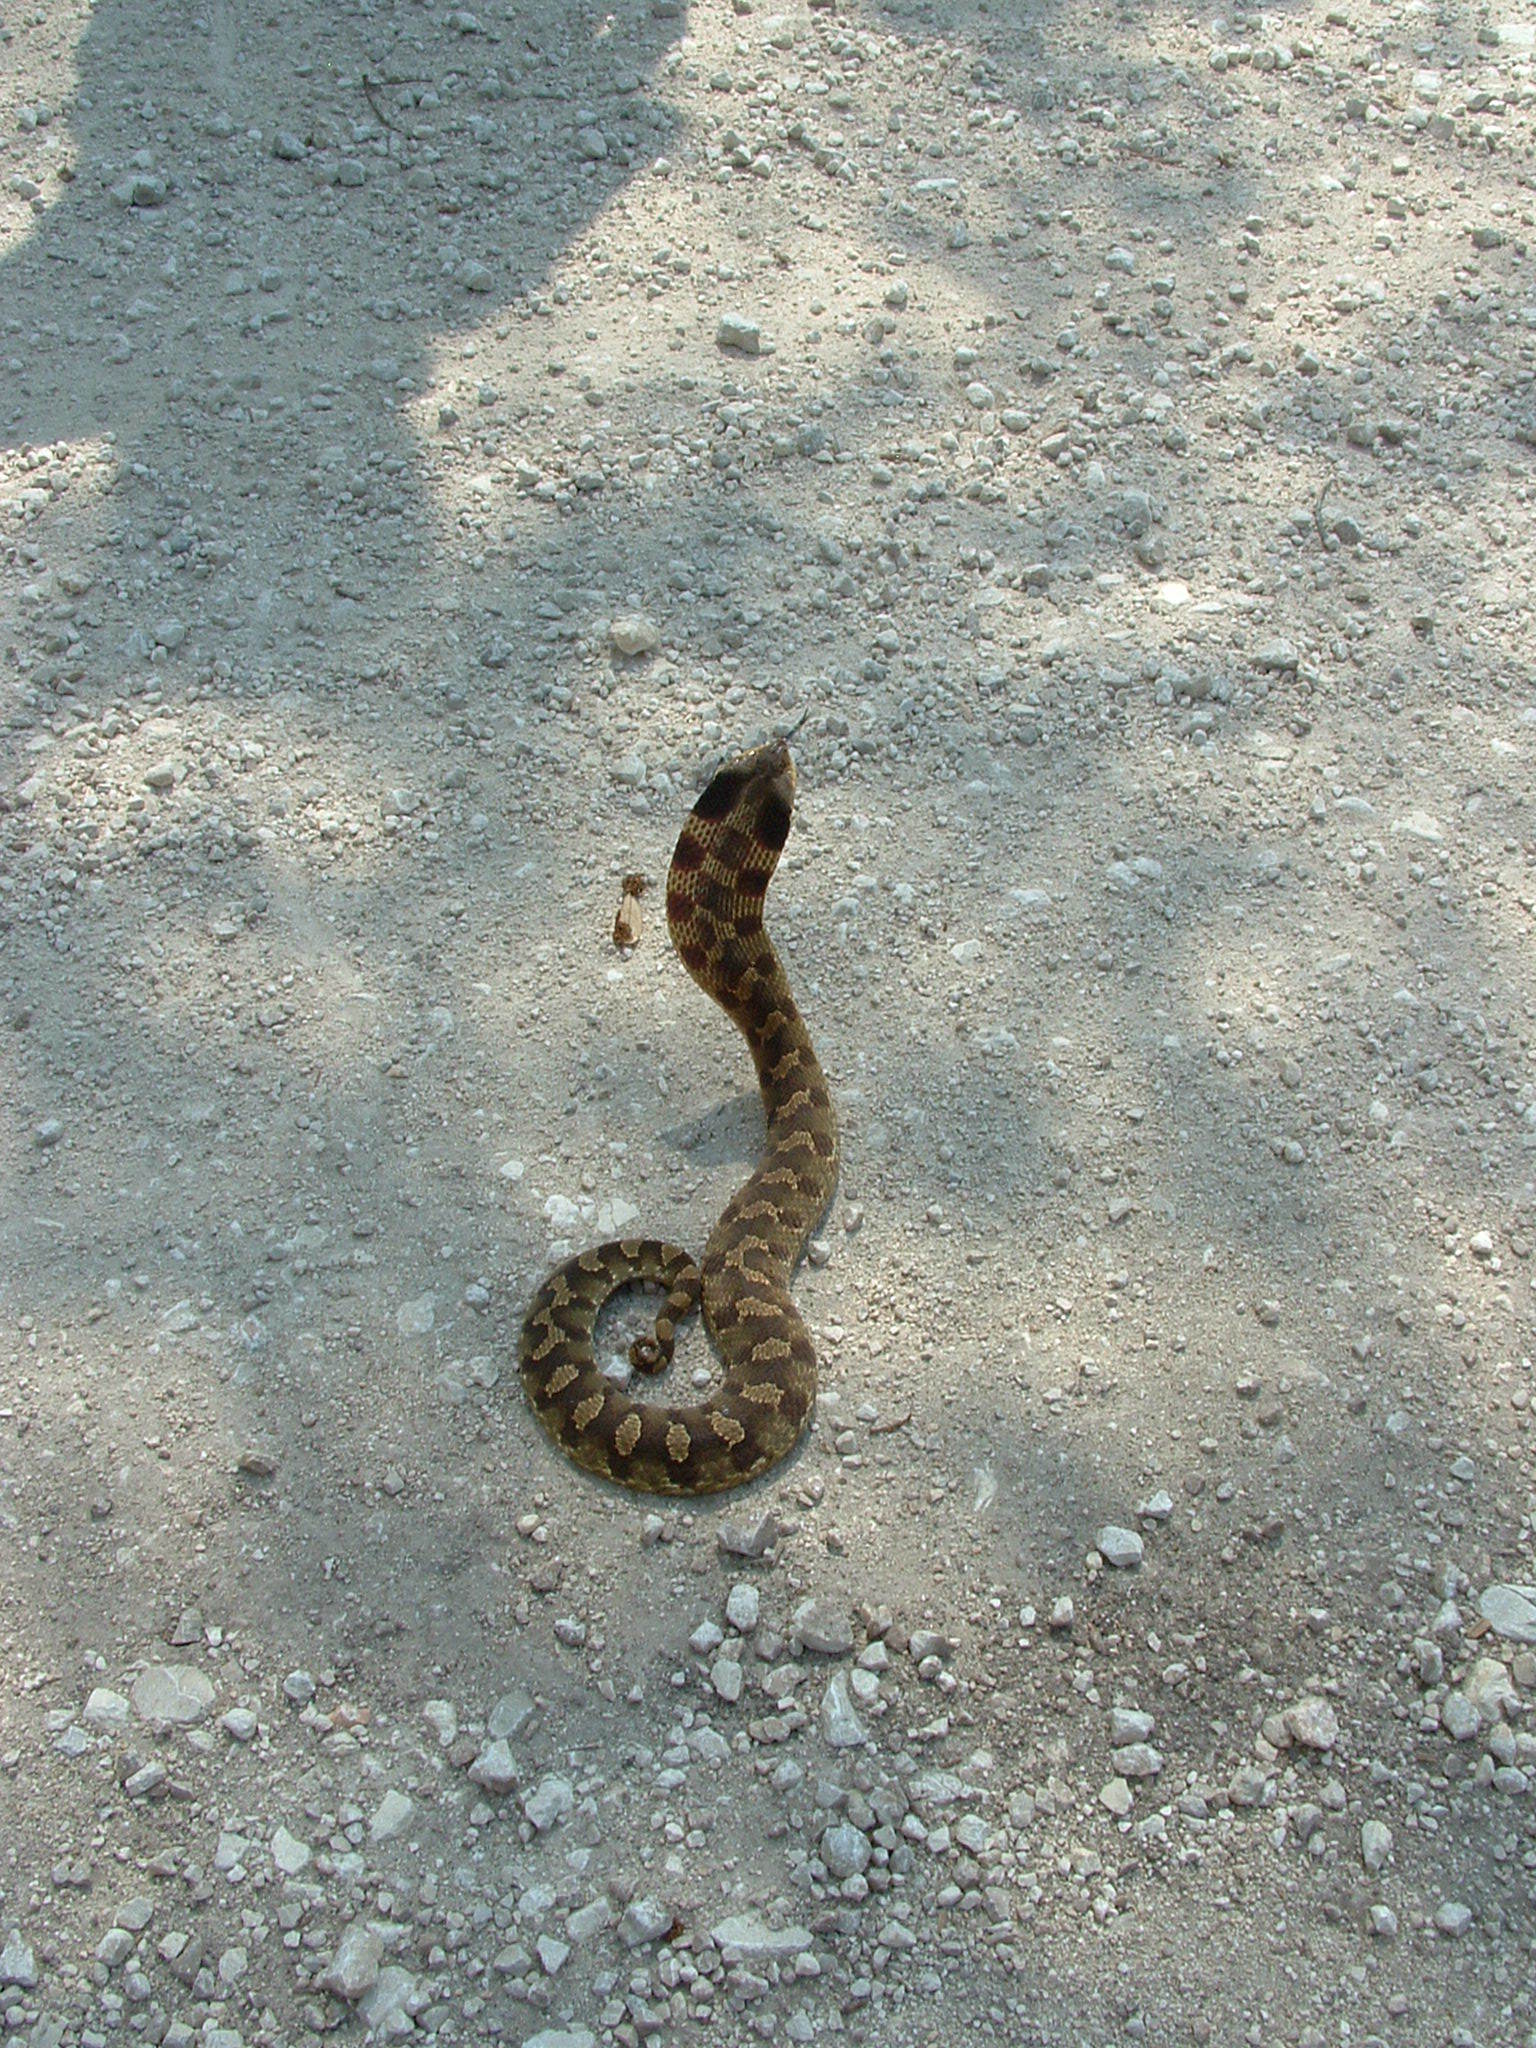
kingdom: Animalia
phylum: Chordata
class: Squamata
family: Colubridae
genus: Heterodon
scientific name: Heterodon platirhinos
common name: Eastern hognose snake
